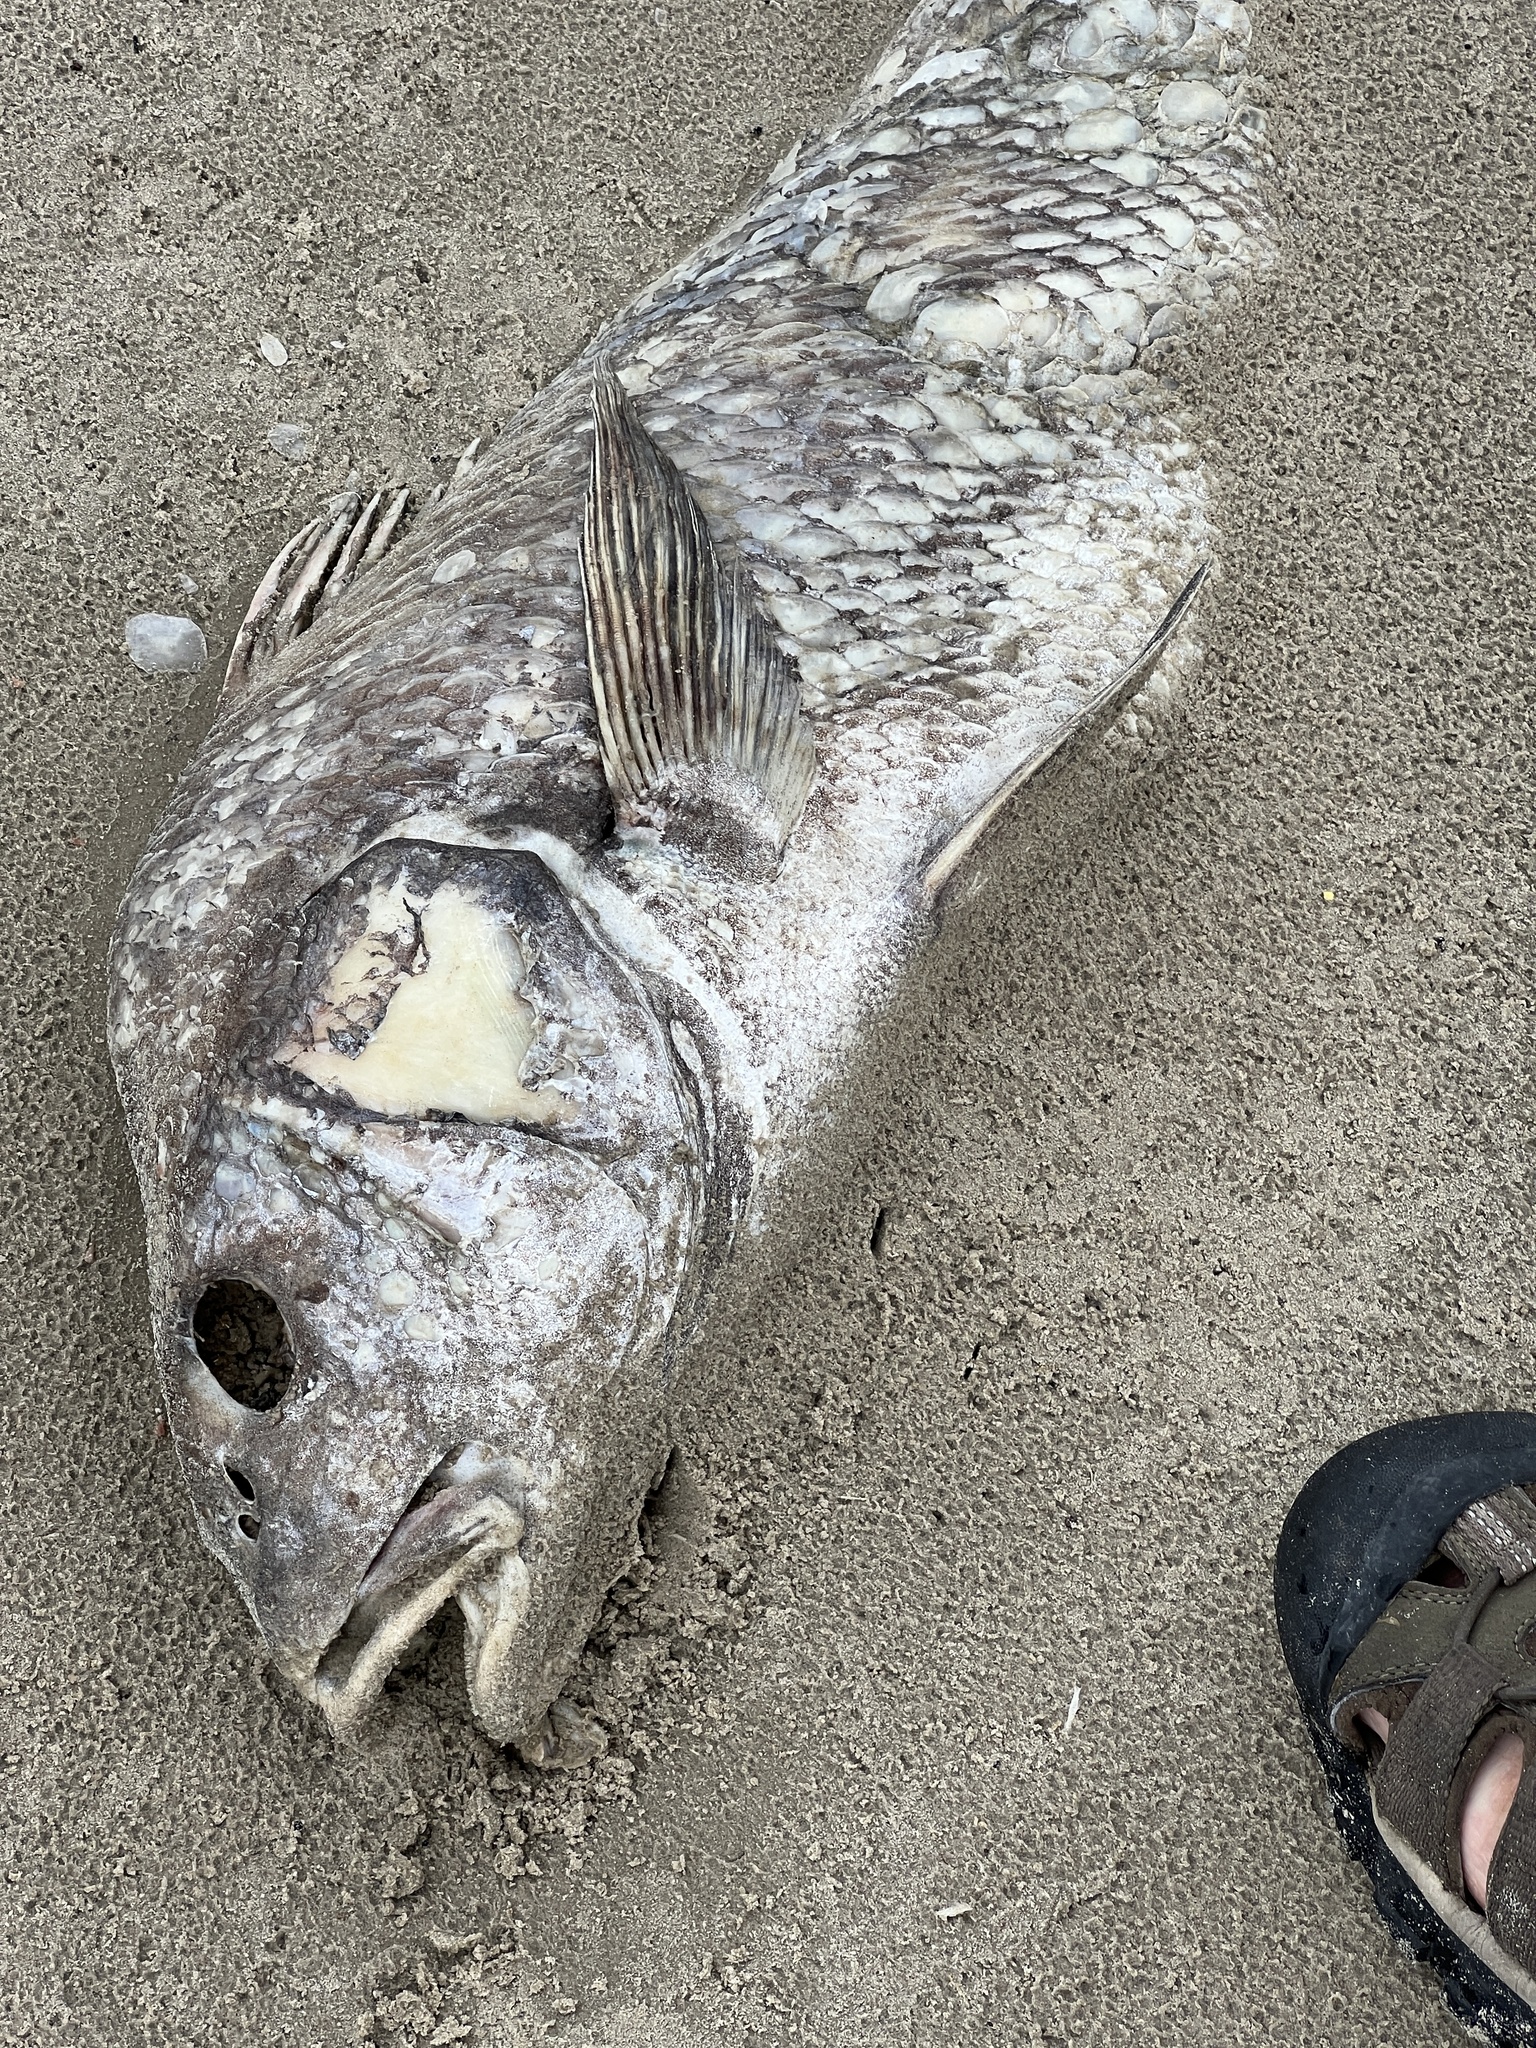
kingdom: Animalia
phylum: Chordata
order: Perciformes
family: Sciaenidae
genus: Pogonias
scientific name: Pogonias cromis
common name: Black drum
